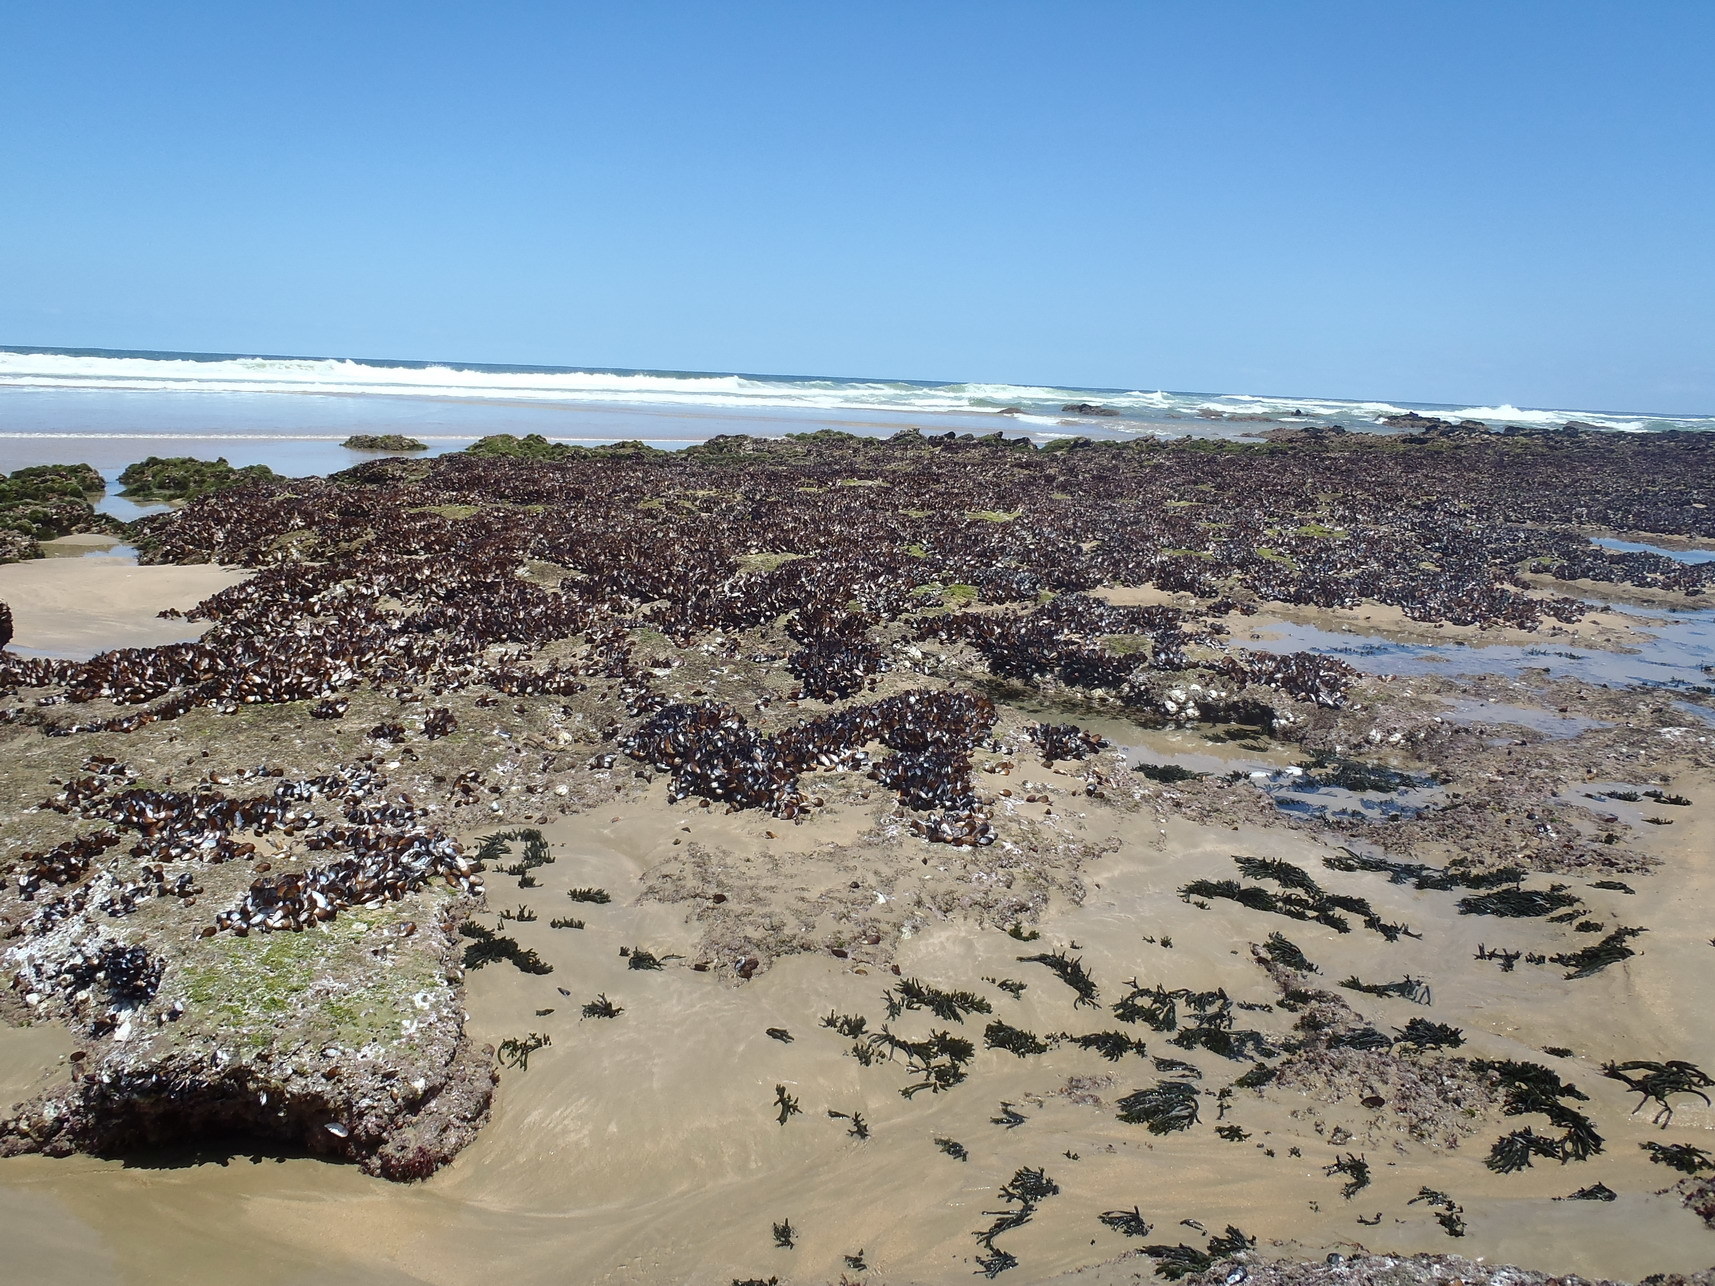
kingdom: Animalia
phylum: Mollusca
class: Bivalvia
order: Mytilida
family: Mytilidae
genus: Perna
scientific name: Perna perna
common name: Mexilhao mussel
